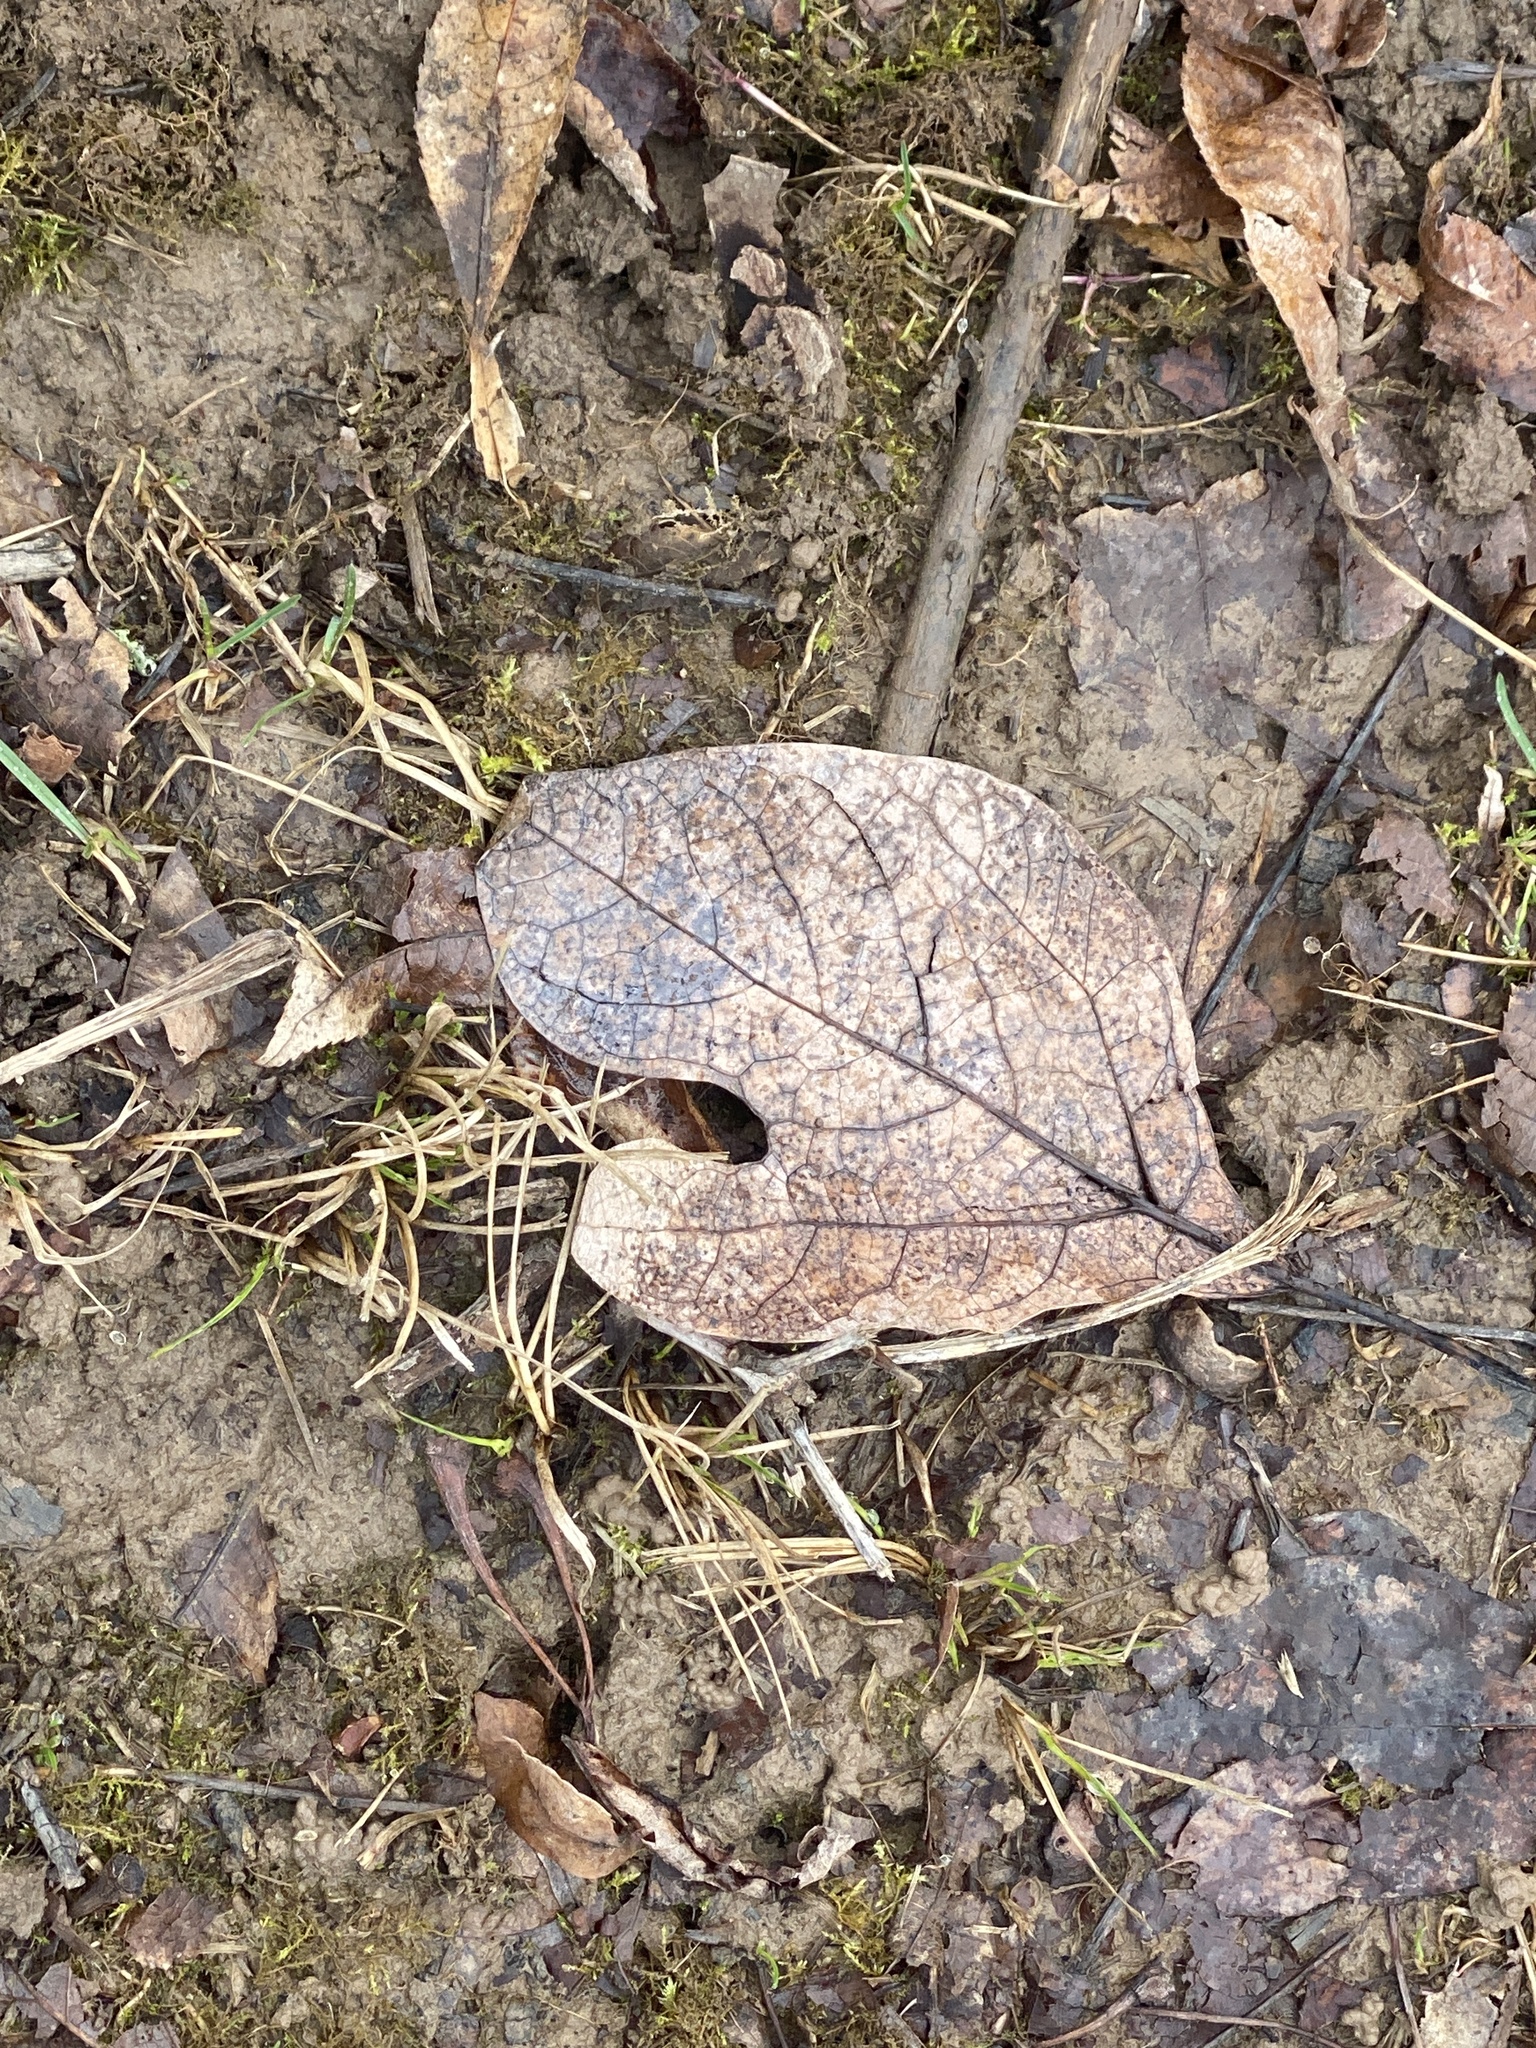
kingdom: Plantae
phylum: Tracheophyta
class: Magnoliopsida
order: Laurales
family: Lauraceae
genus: Sassafras
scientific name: Sassafras albidum
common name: Sassafras
